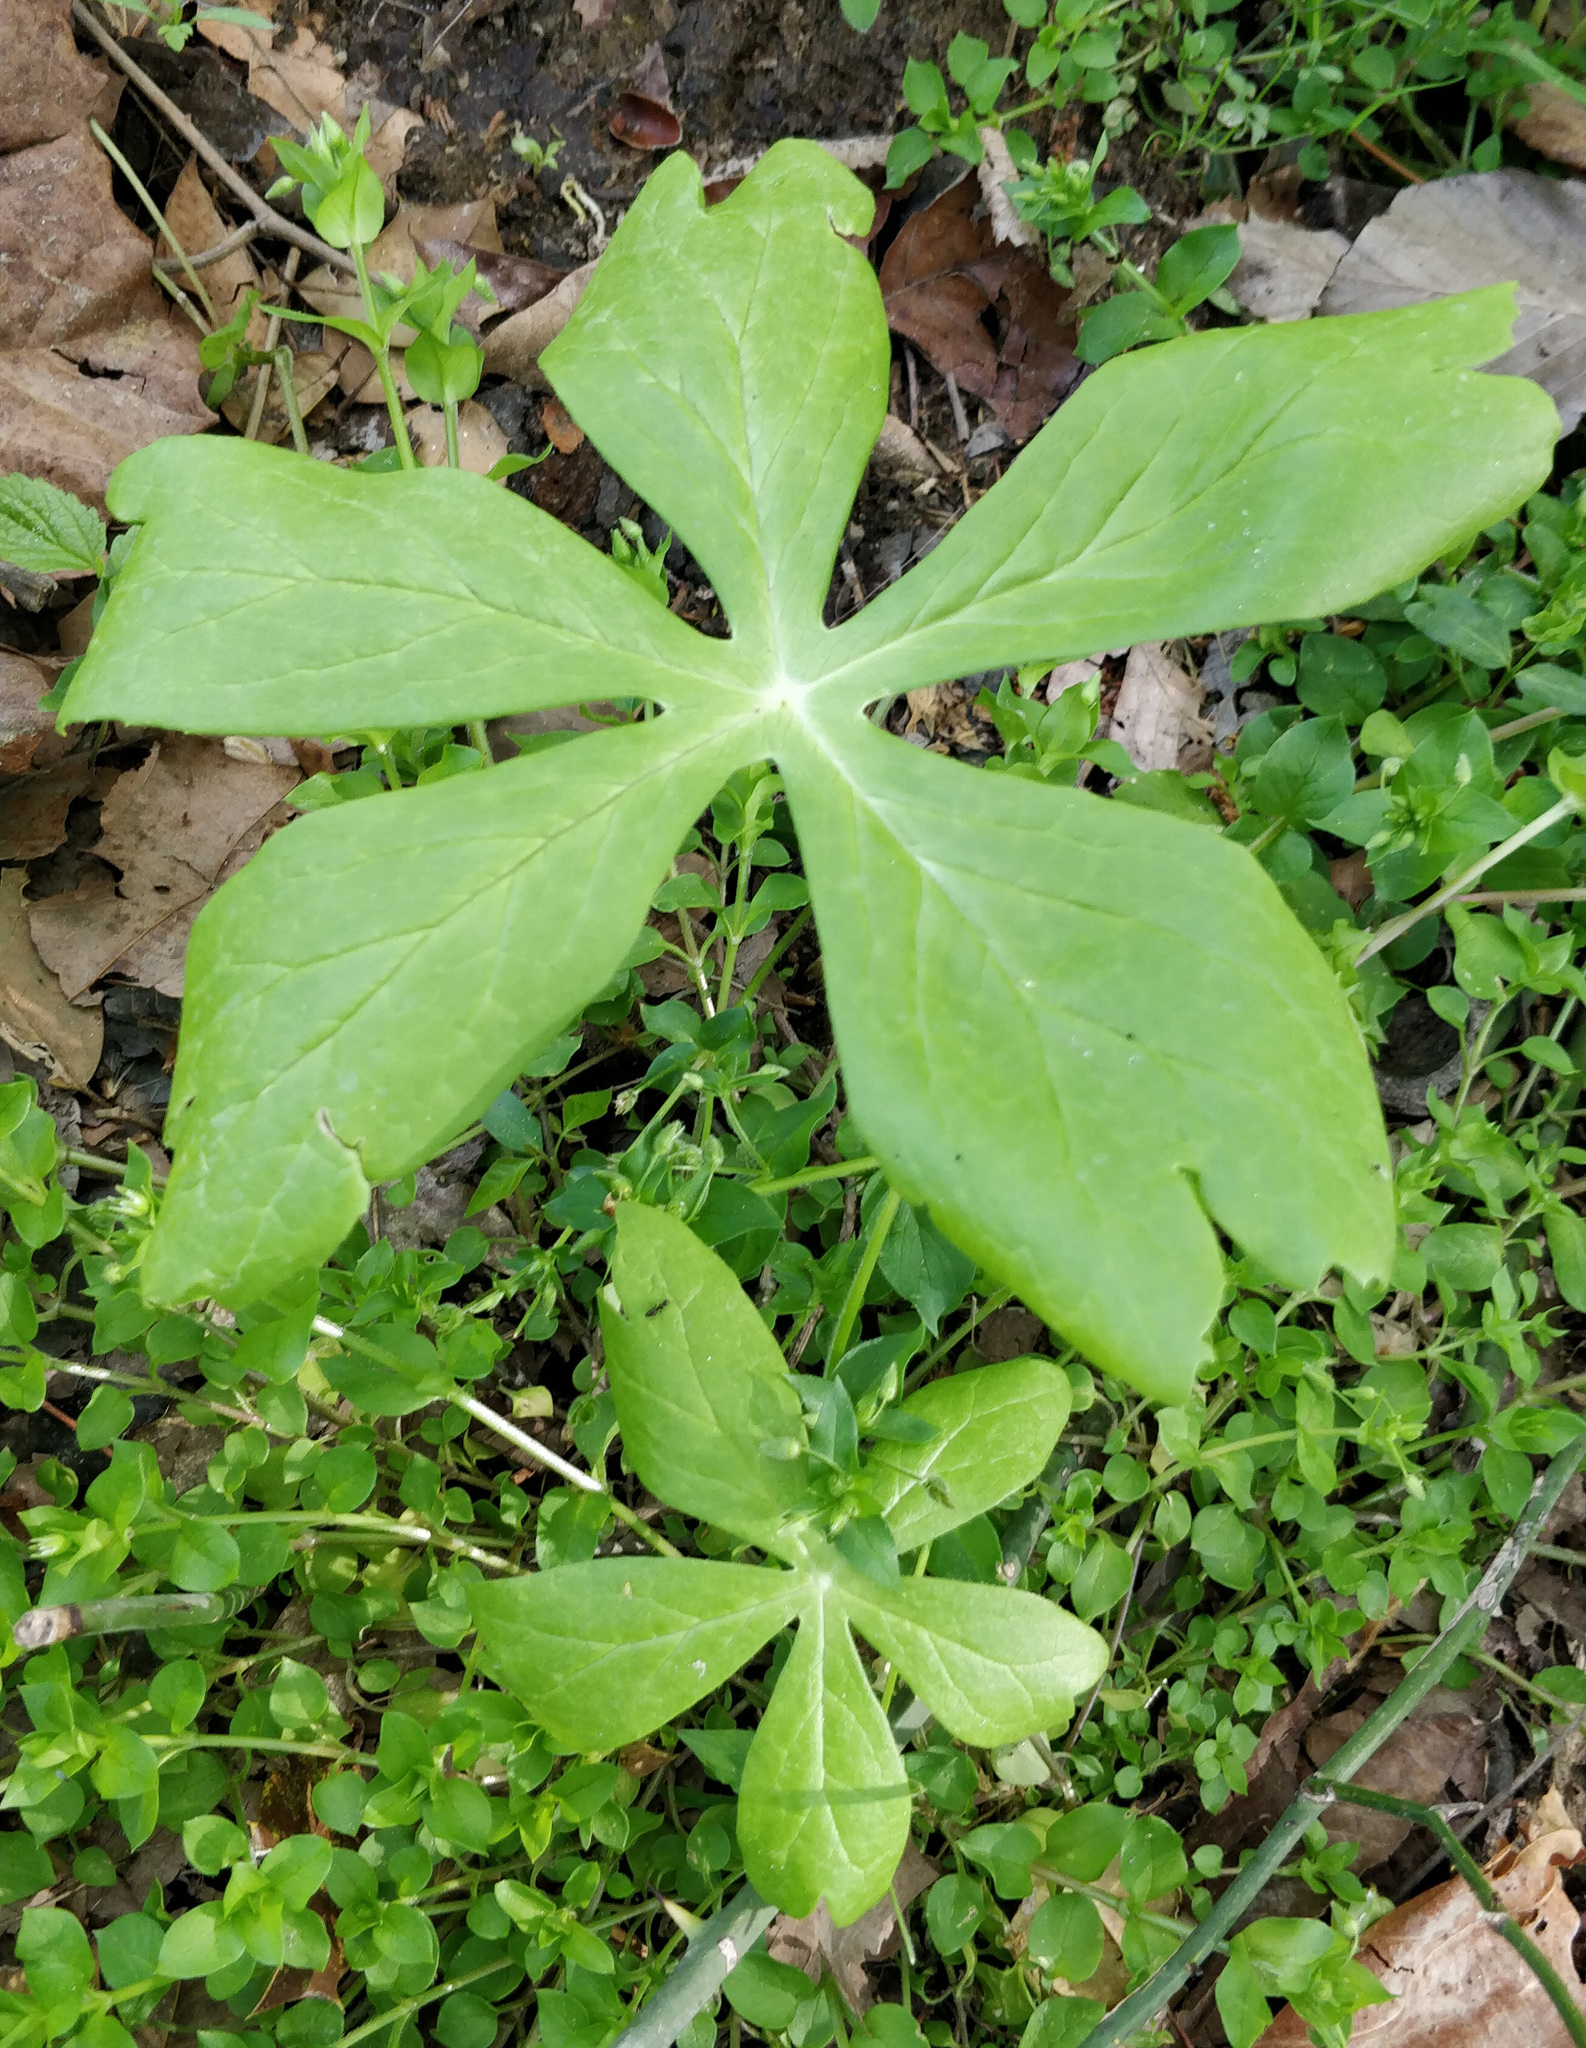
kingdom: Plantae
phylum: Tracheophyta
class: Magnoliopsida
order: Ranunculales
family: Berberidaceae
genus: Podophyllum
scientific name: Podophyllum peltatum
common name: Wild mandrake
